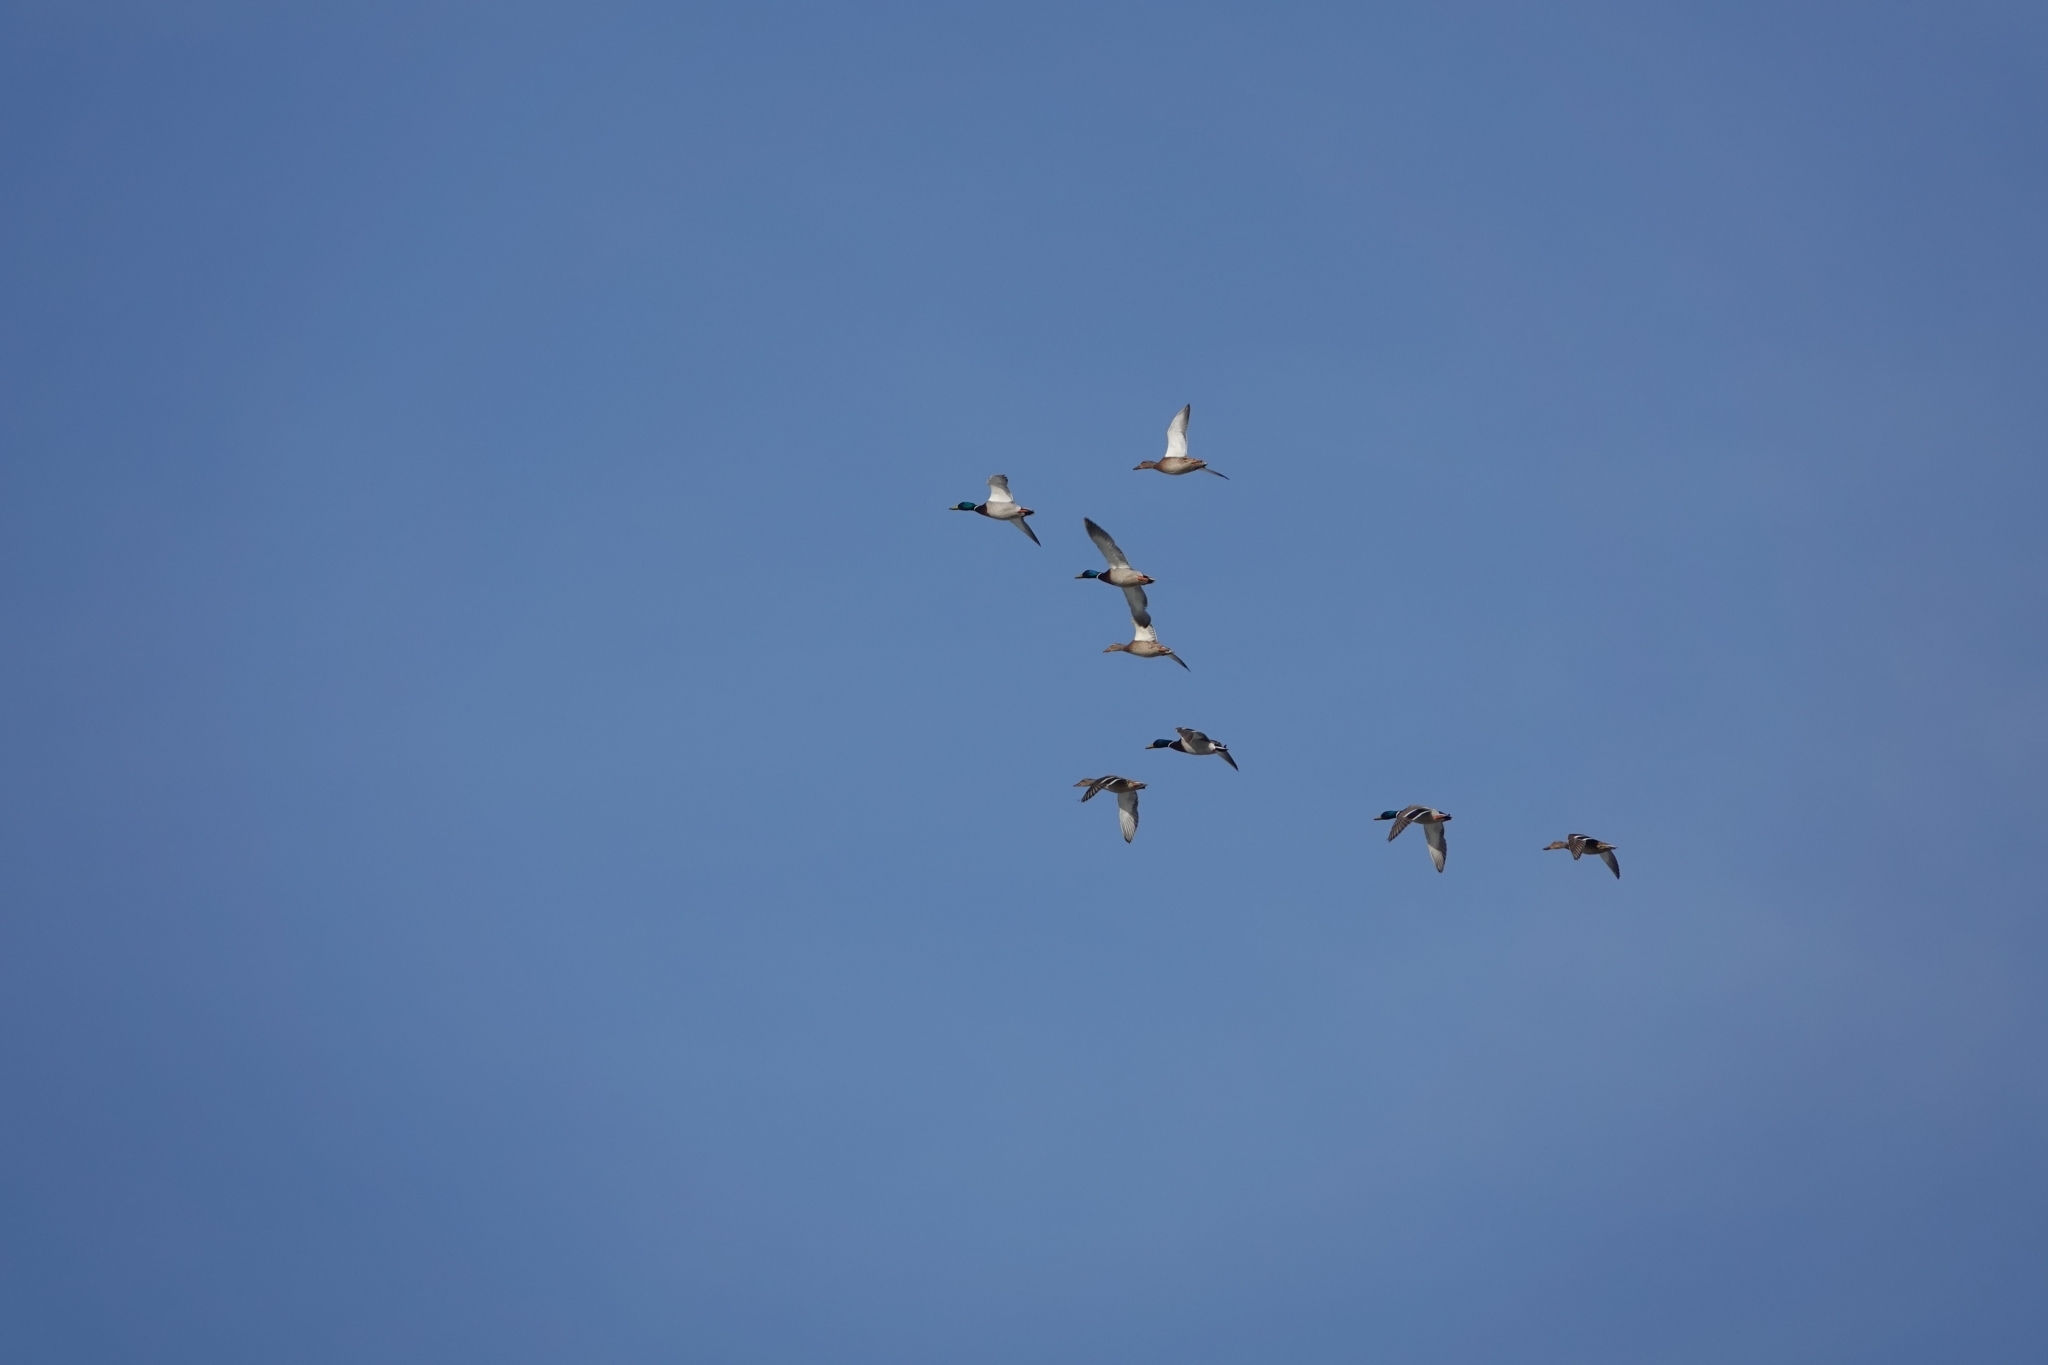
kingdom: Animalia
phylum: Chordata
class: Aves
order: Anseriformes
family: Anatidae
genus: Anas
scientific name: Anas platyrhynchos
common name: Mallard
